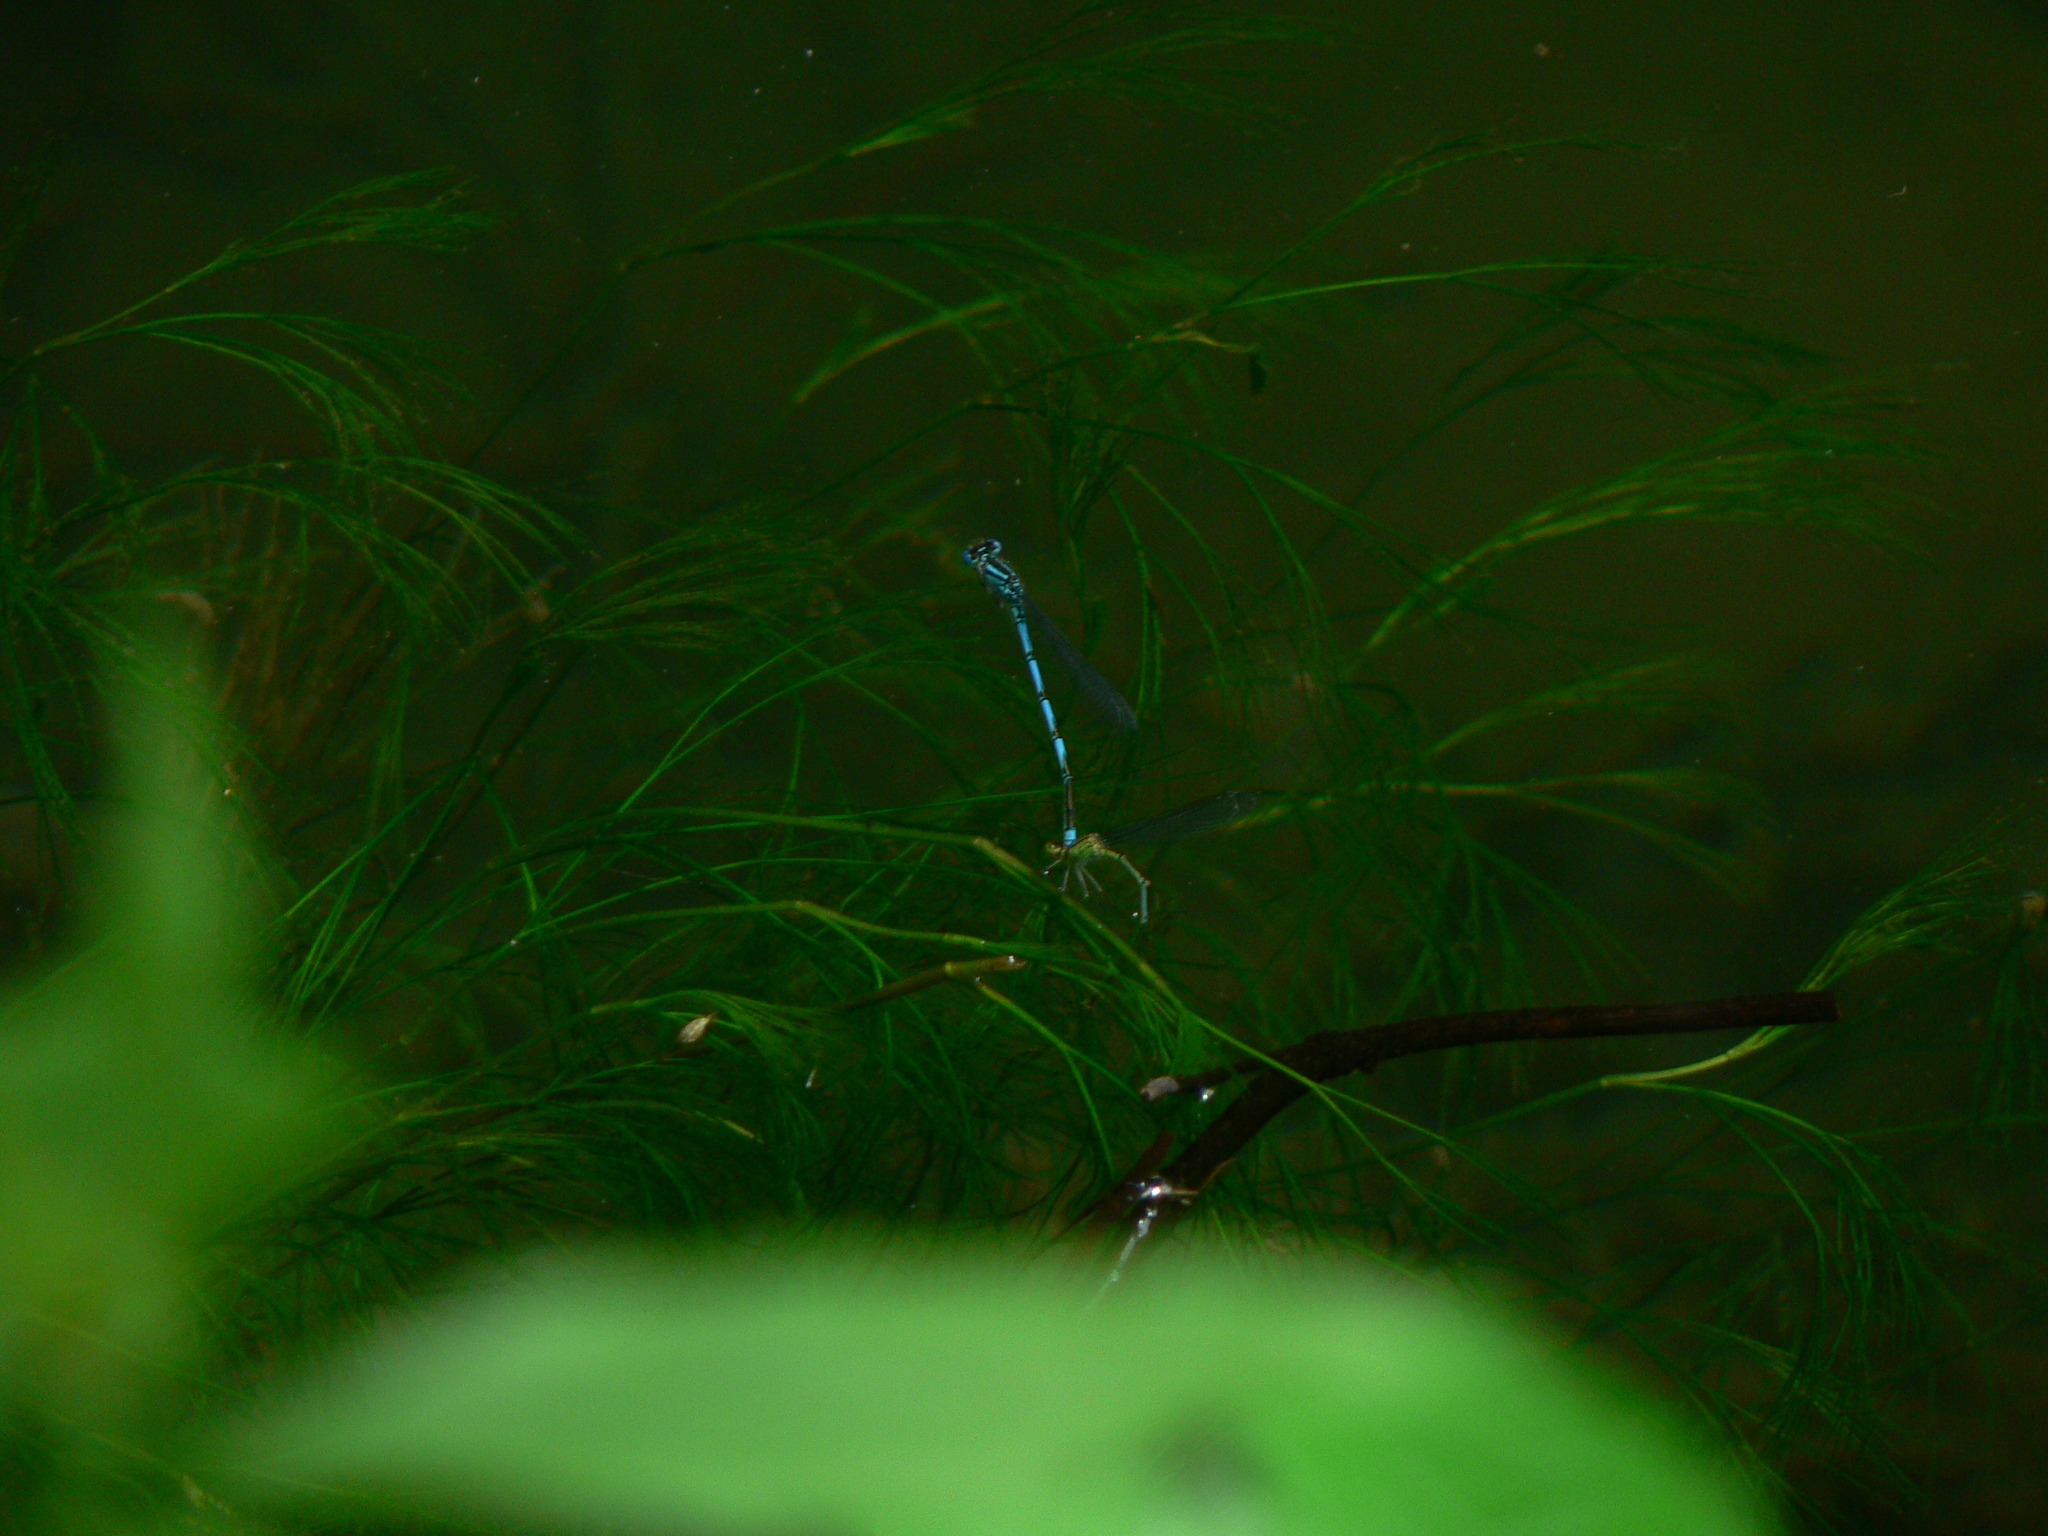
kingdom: Animalia
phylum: Arthropoda
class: Insecta
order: Odonata
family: Coenagrionidae
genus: Erythromma
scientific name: Erythromma lindenii
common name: Blue-eye
